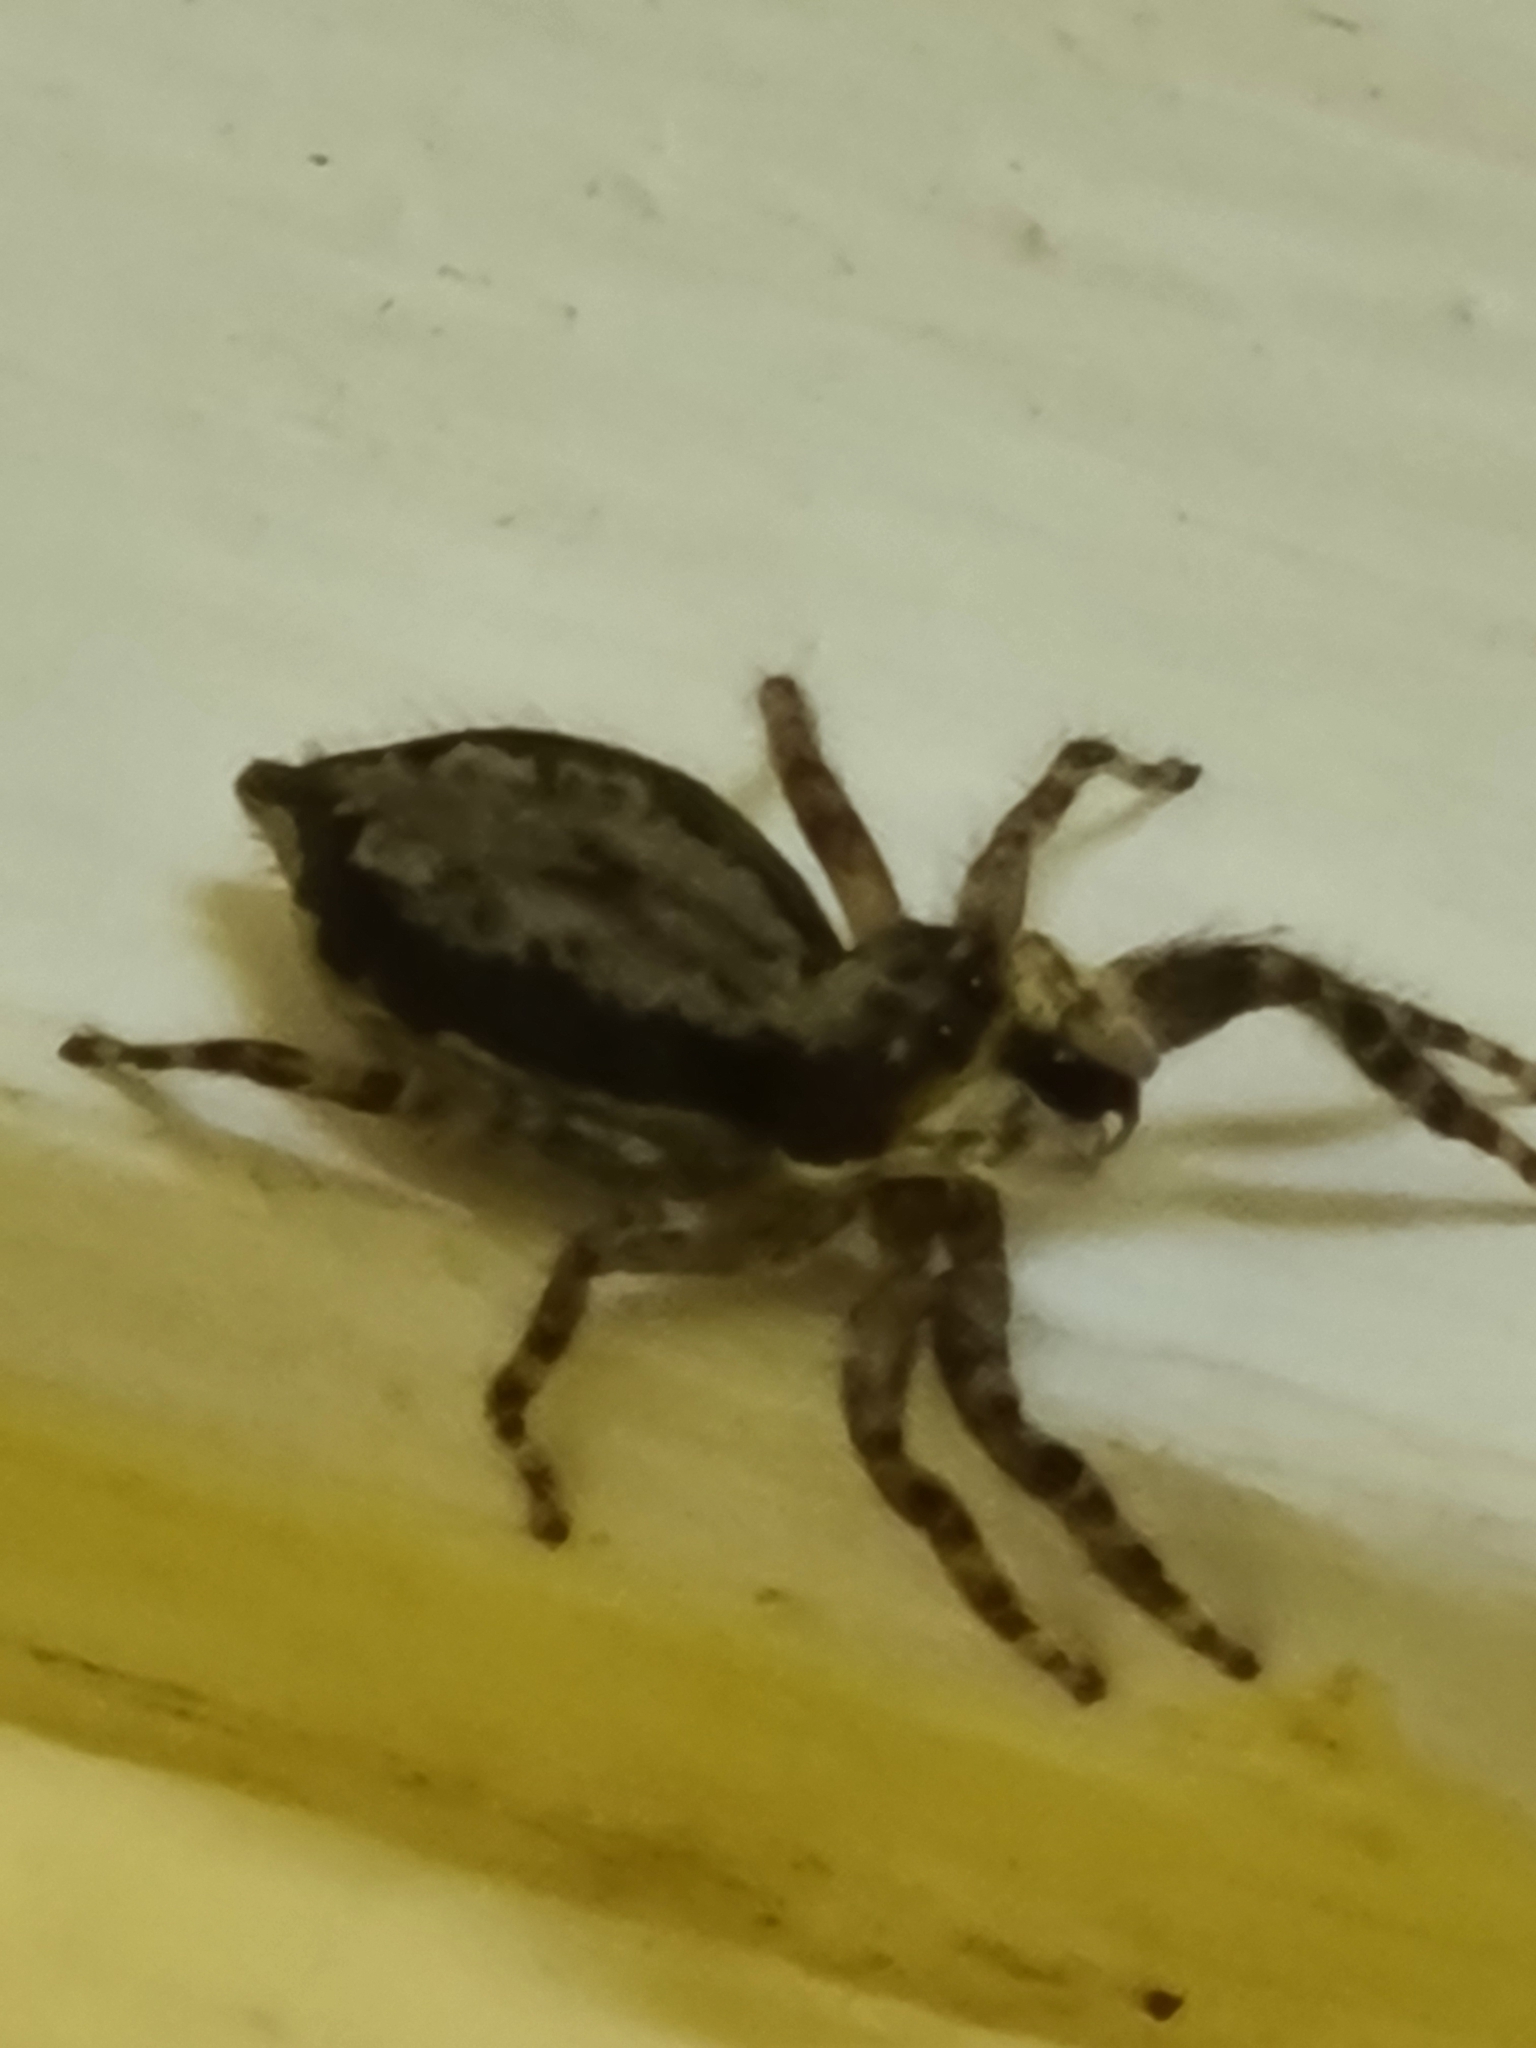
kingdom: Animalia
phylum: Arthropoda
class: Arachnida
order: Araneae
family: Salticidae
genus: Menemerus
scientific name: Menemerus bivittatus
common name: Gray wall jumper
